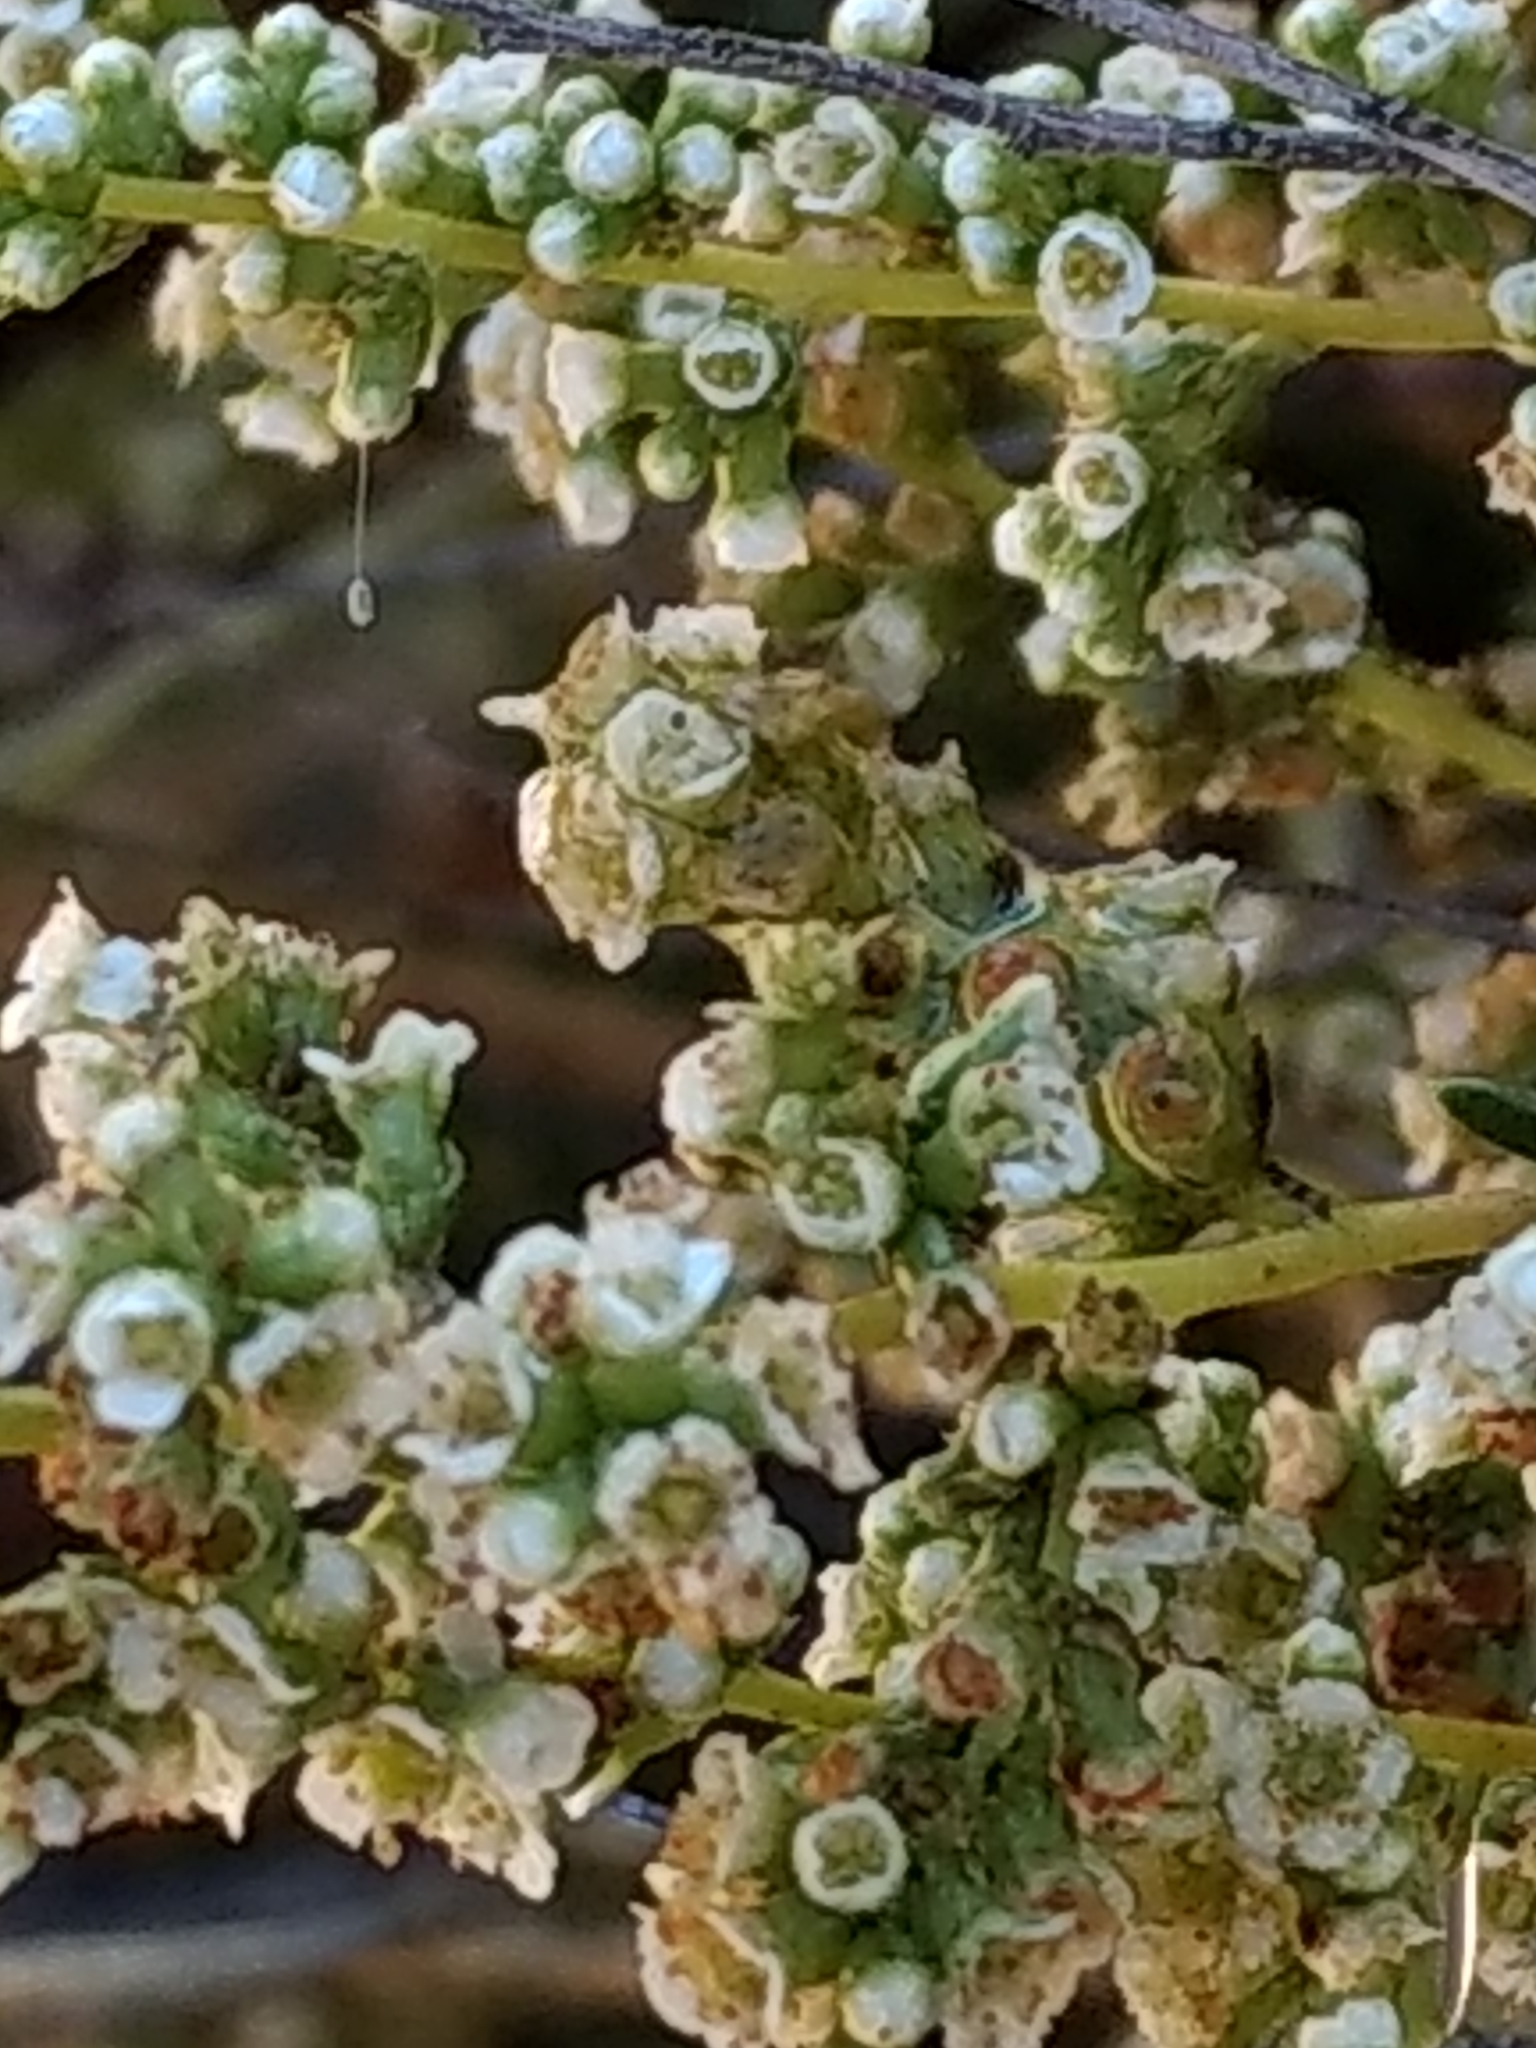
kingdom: Plantae
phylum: Tracheophyta
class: Magnoliopsida
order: Rosales
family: Rosaceae
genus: Adenostoma
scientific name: Adenostoma fasciculatum
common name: Chamise
